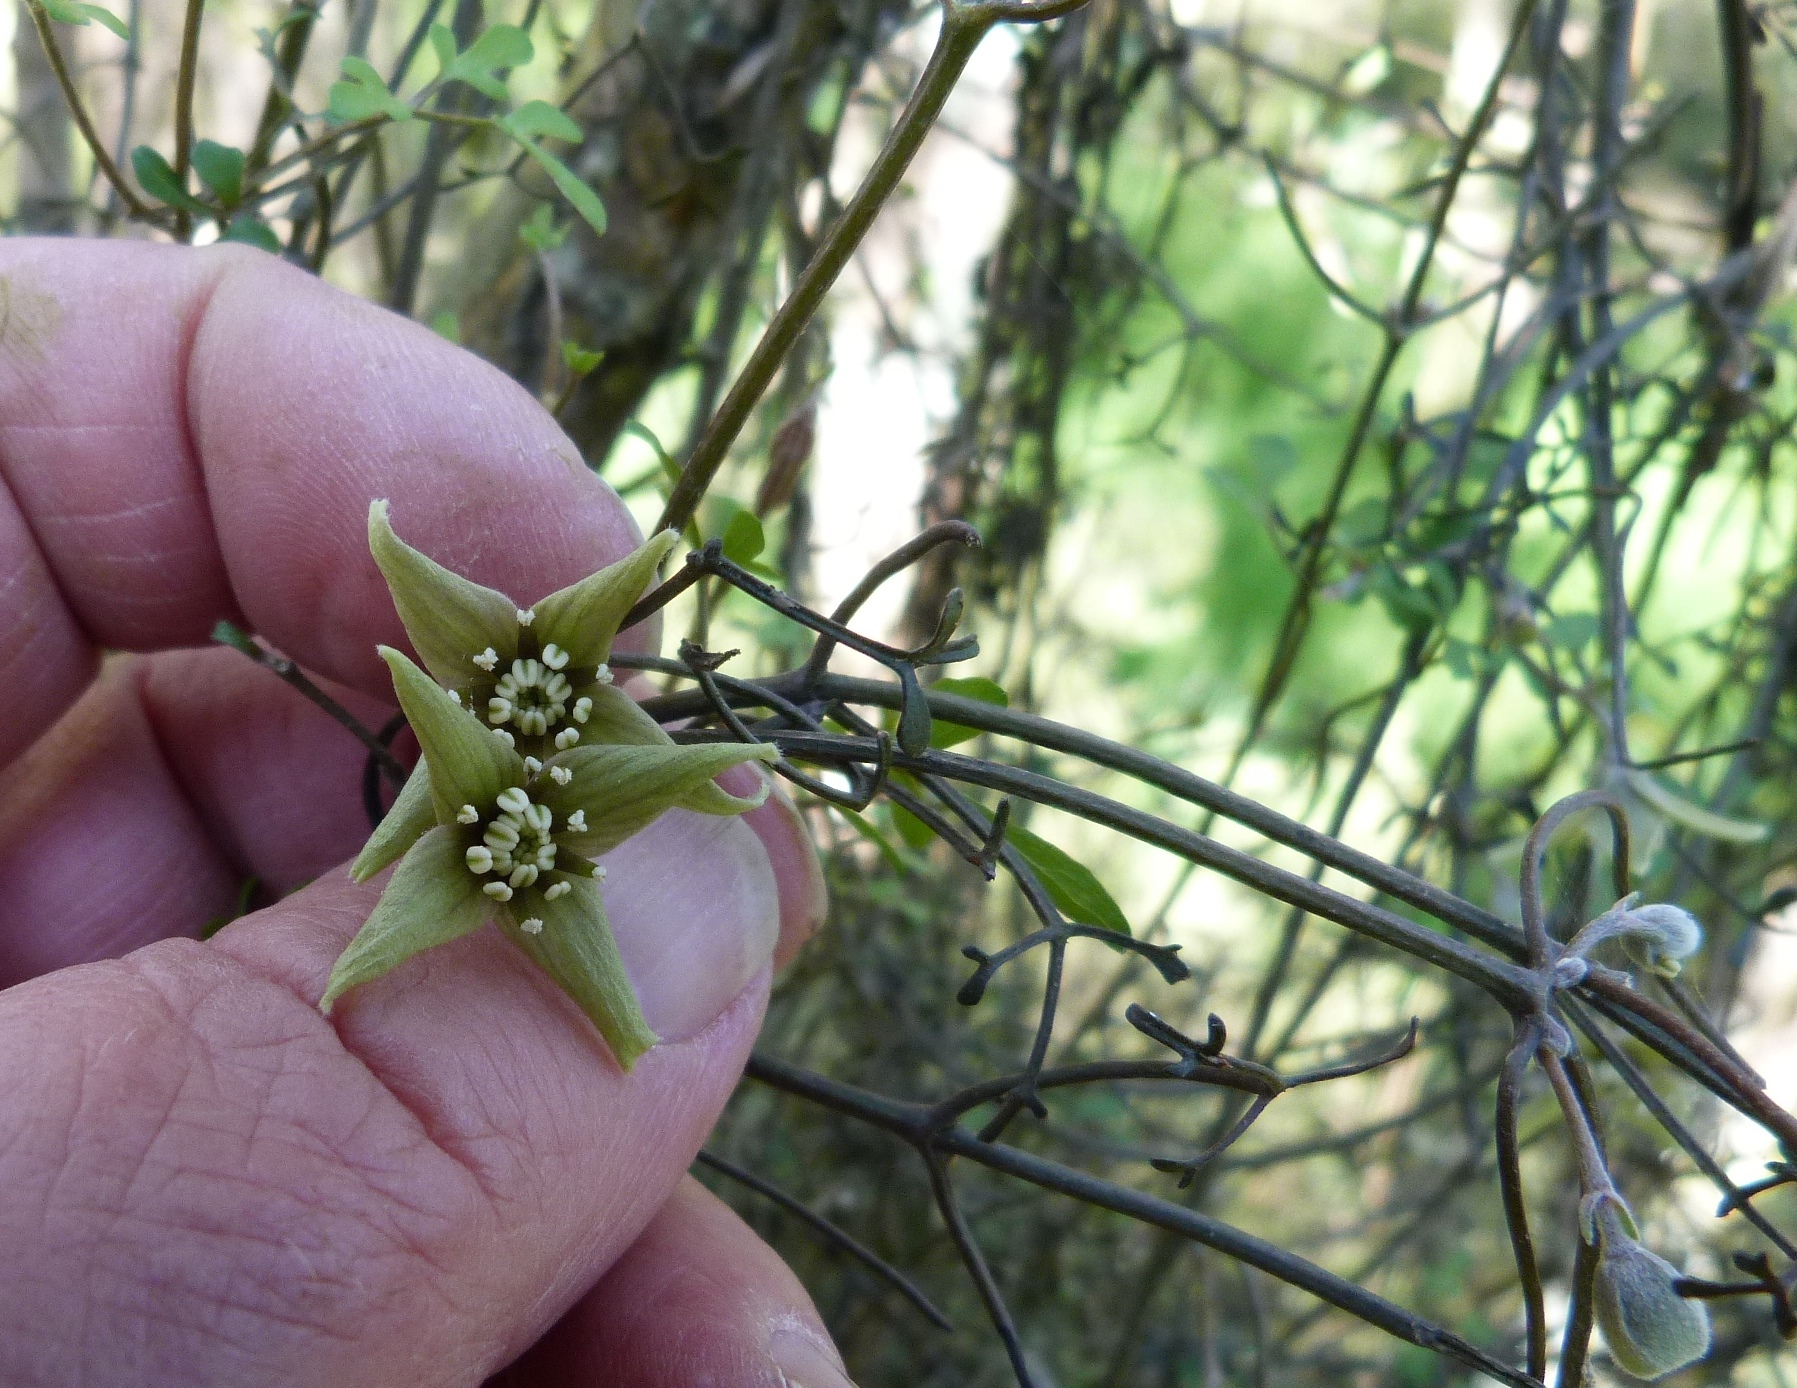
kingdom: Plantae
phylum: Tracheophyta
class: Magnoliopsida
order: Ranunculales
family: Ranunculaceae
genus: Clematis
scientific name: Clematis quadribracteolata
